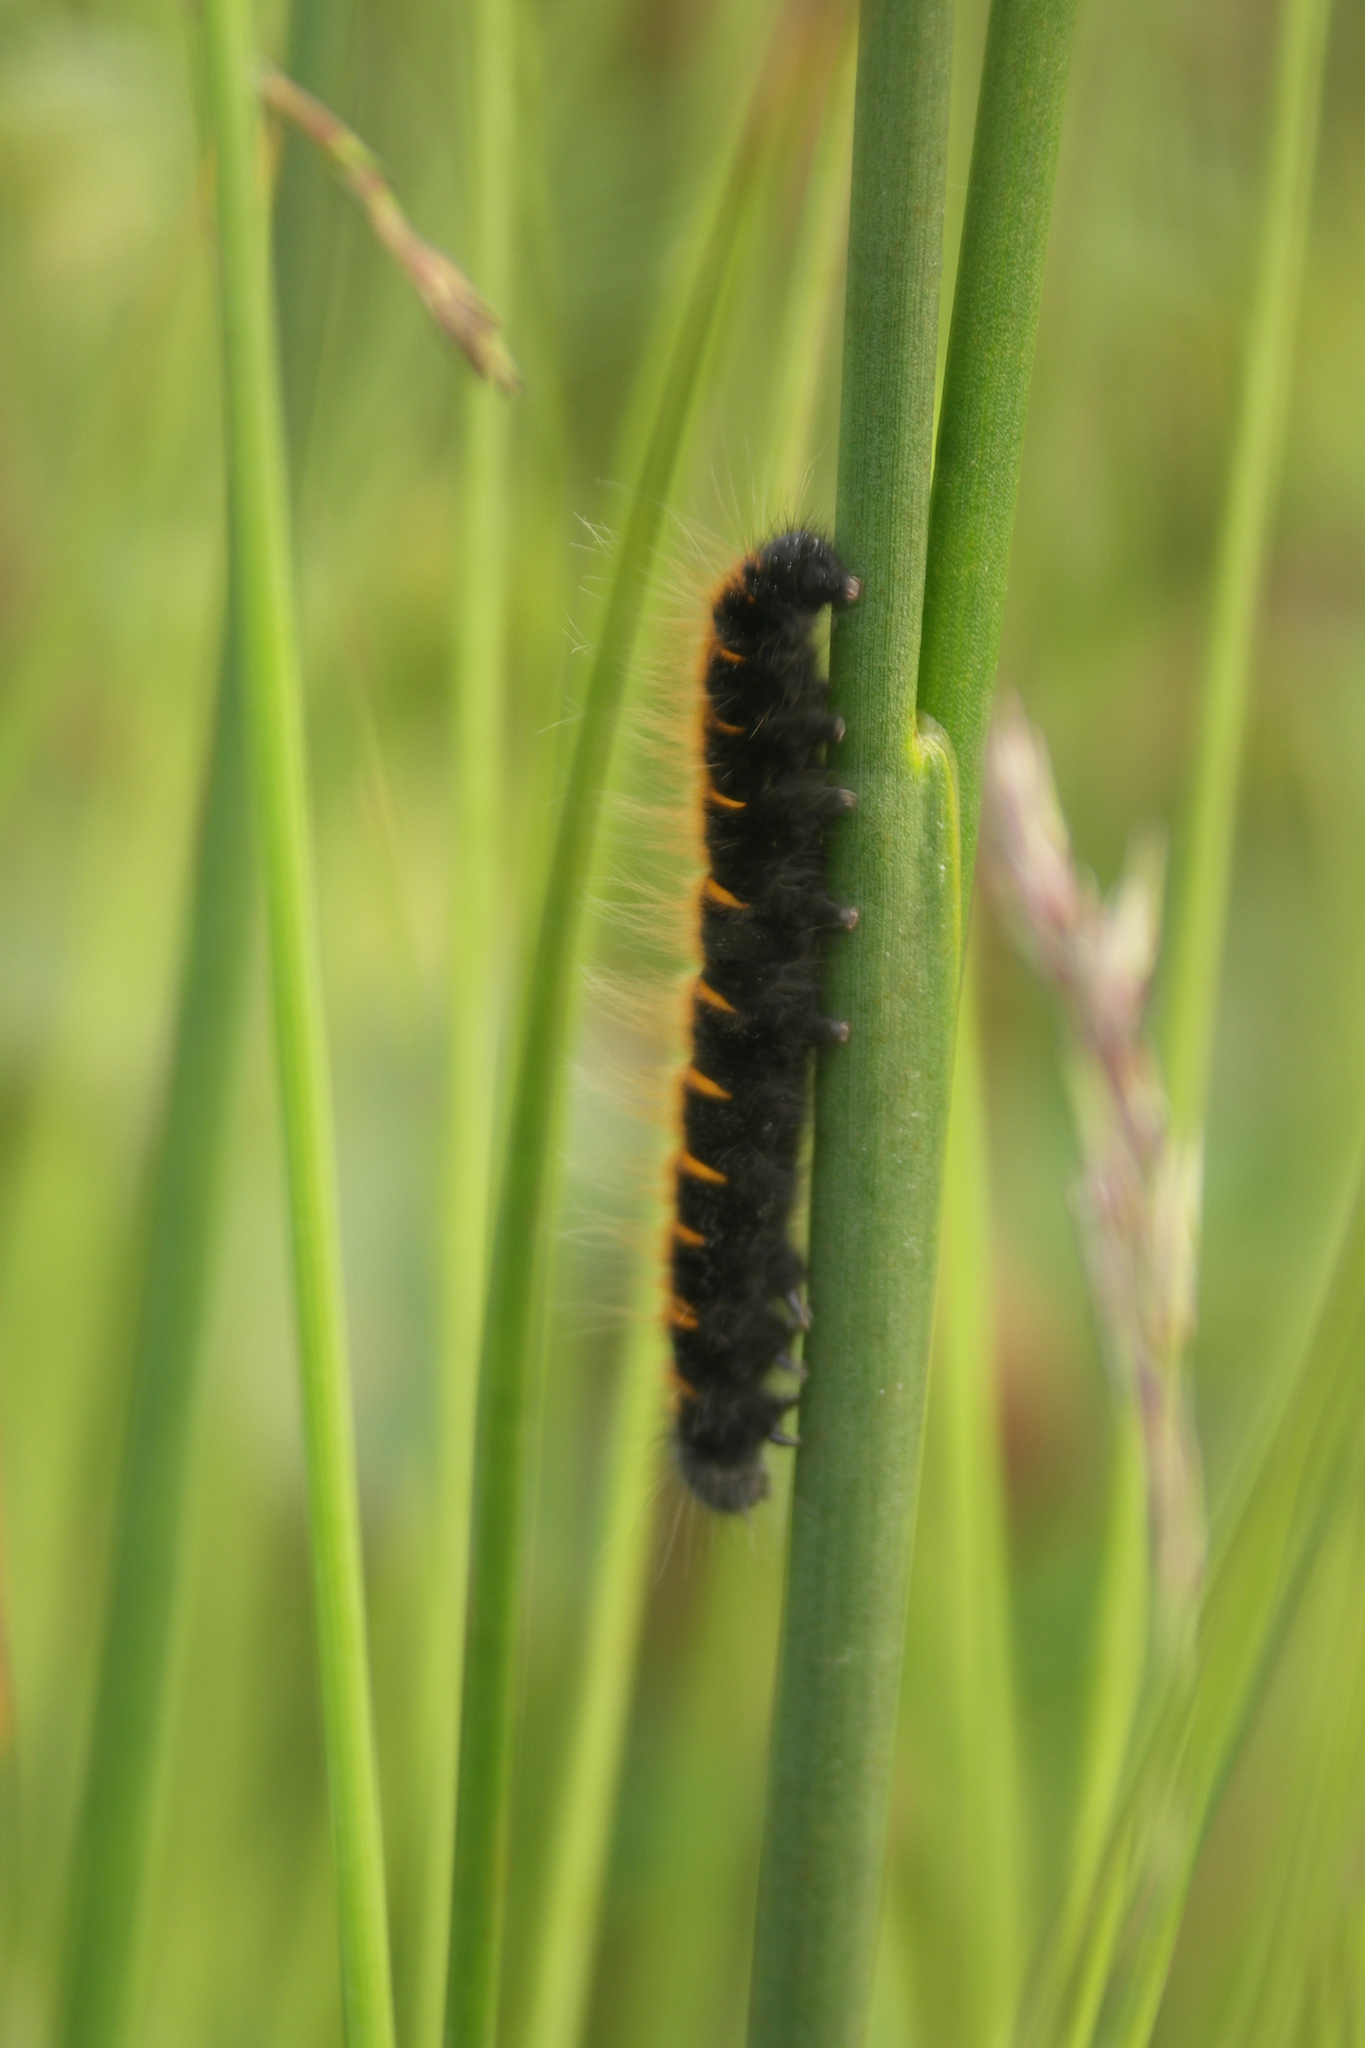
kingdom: Animalia
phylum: Arthropoda
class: Insecta
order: Lepidoptera
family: Lasiocampidae
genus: Macrothylacia
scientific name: Macrothylacia rubi
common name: Fox moth
